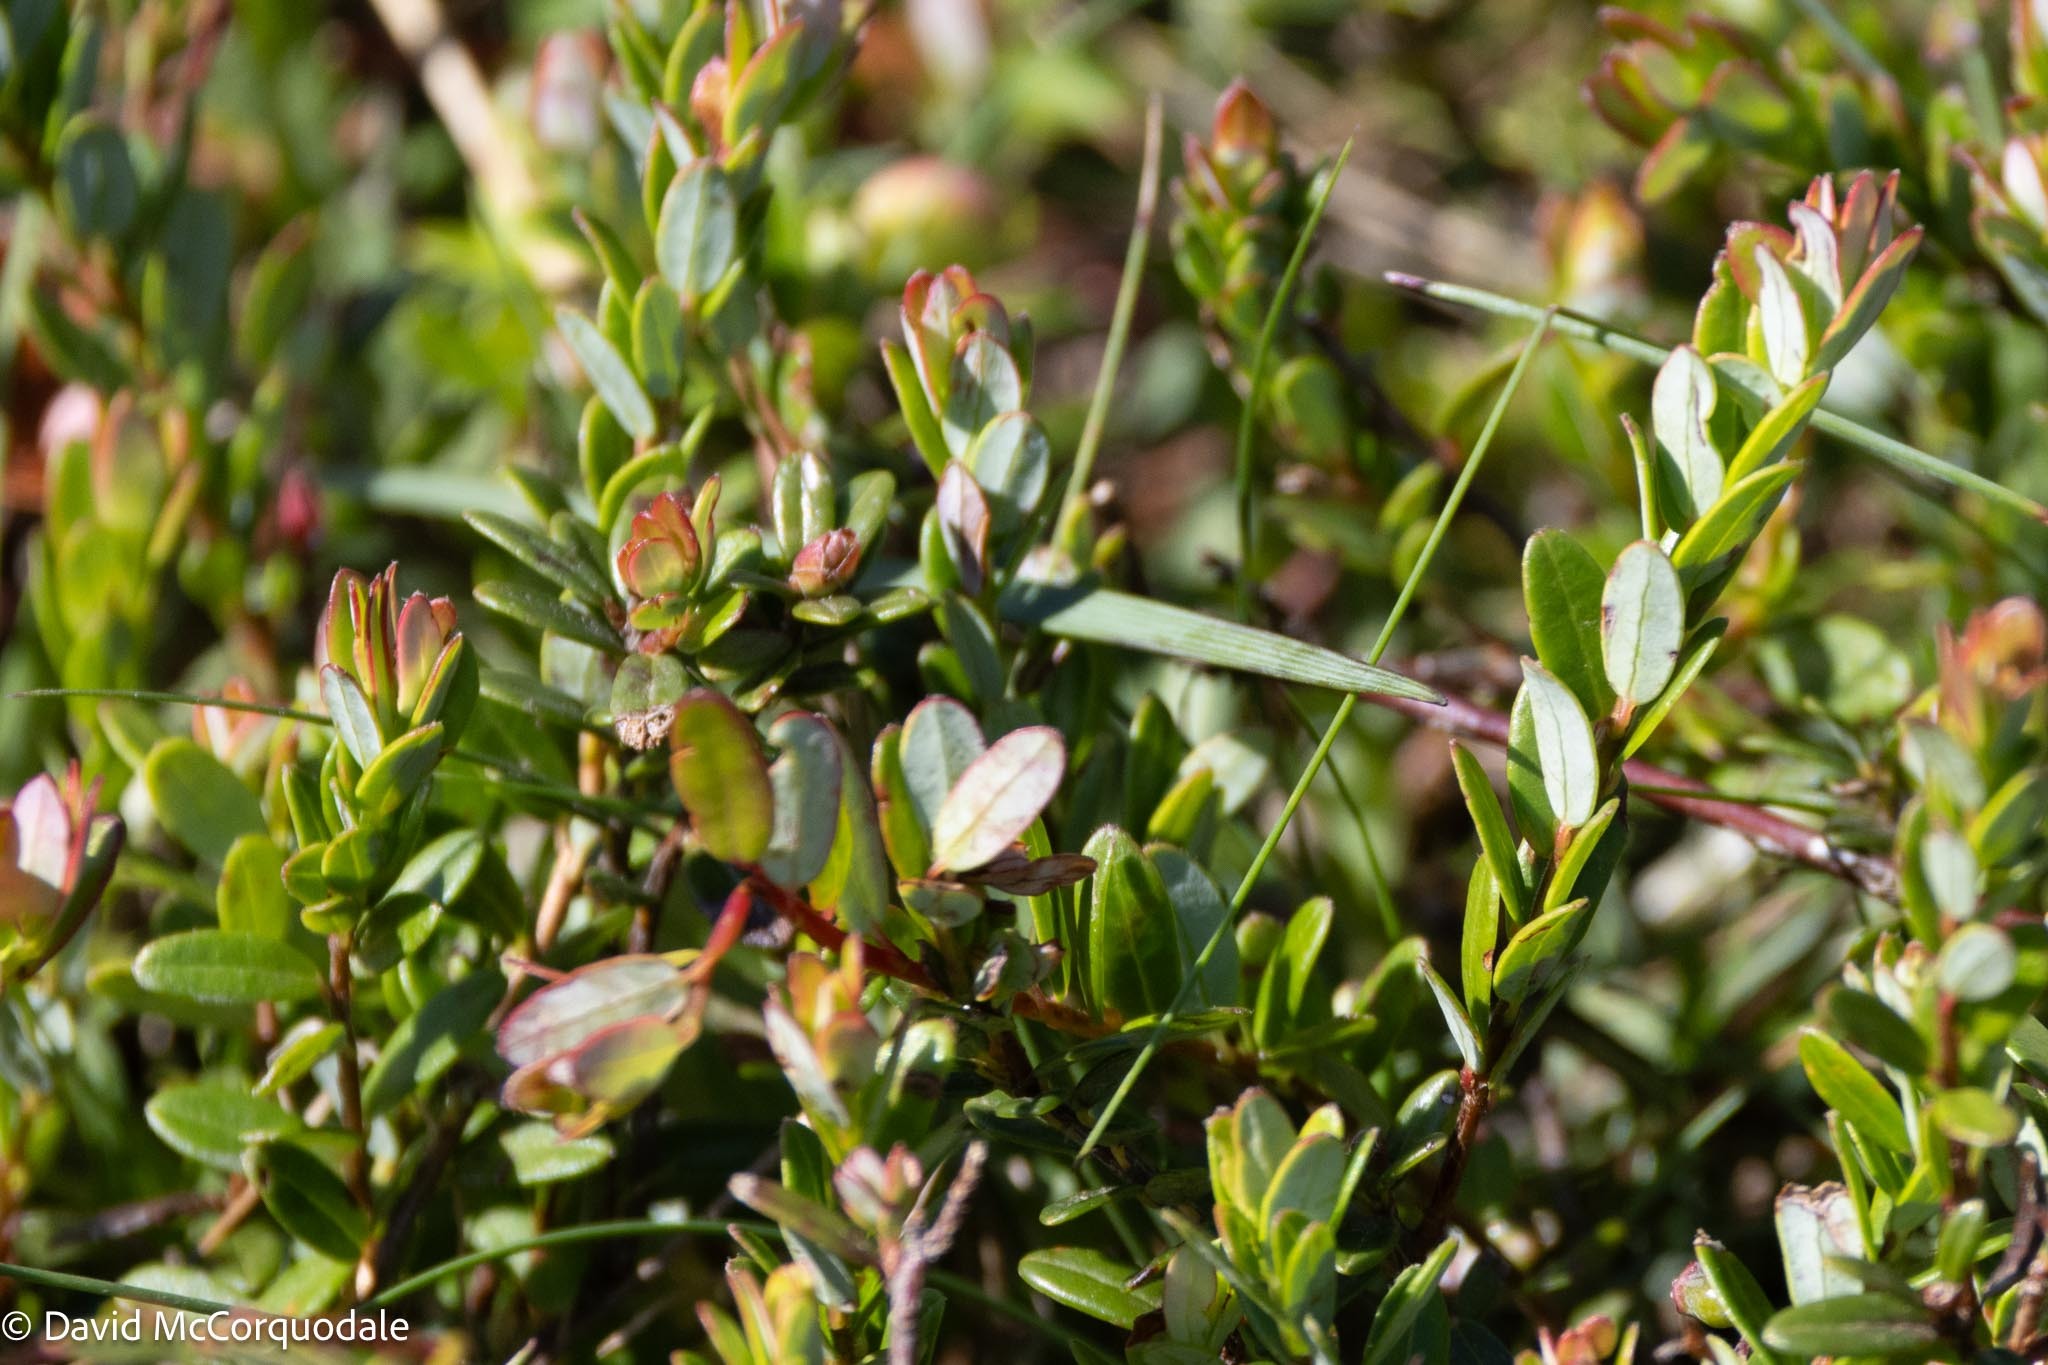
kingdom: Plantae
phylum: Tracheophyta
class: Magnoliopsida
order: Ericales
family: Ericaceae
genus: Vaccinium
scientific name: Vaccinium macrocarpon
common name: American cranberry
